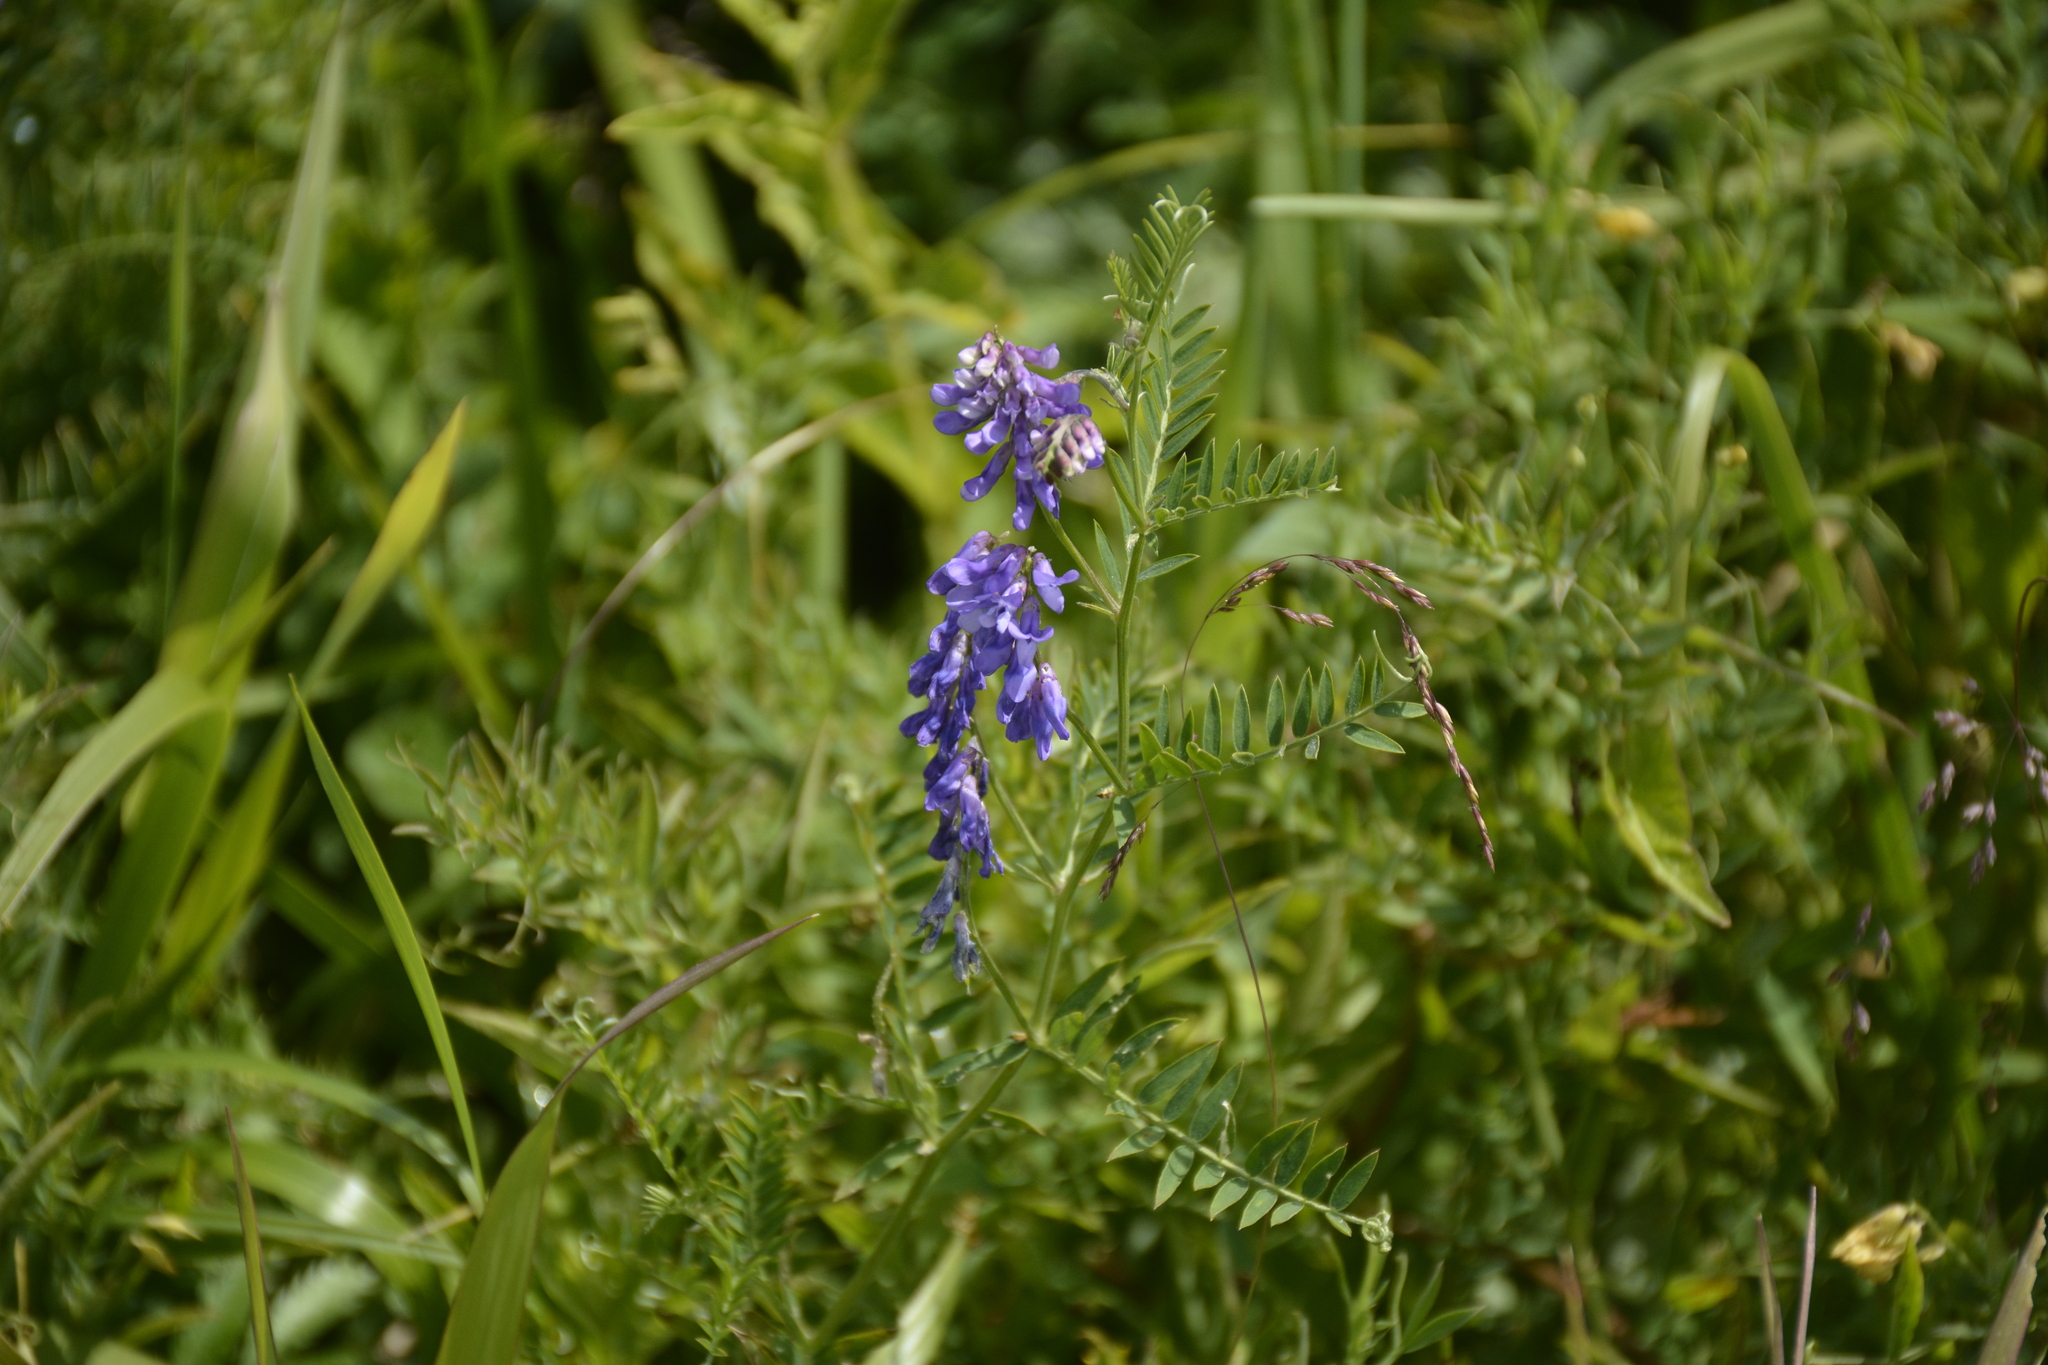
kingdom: Plantae
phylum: Tracheophyta
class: Magnoliopsida
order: Fabales
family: Fabaceae
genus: Vicia
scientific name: Vicia cracca
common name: Bird vetch
